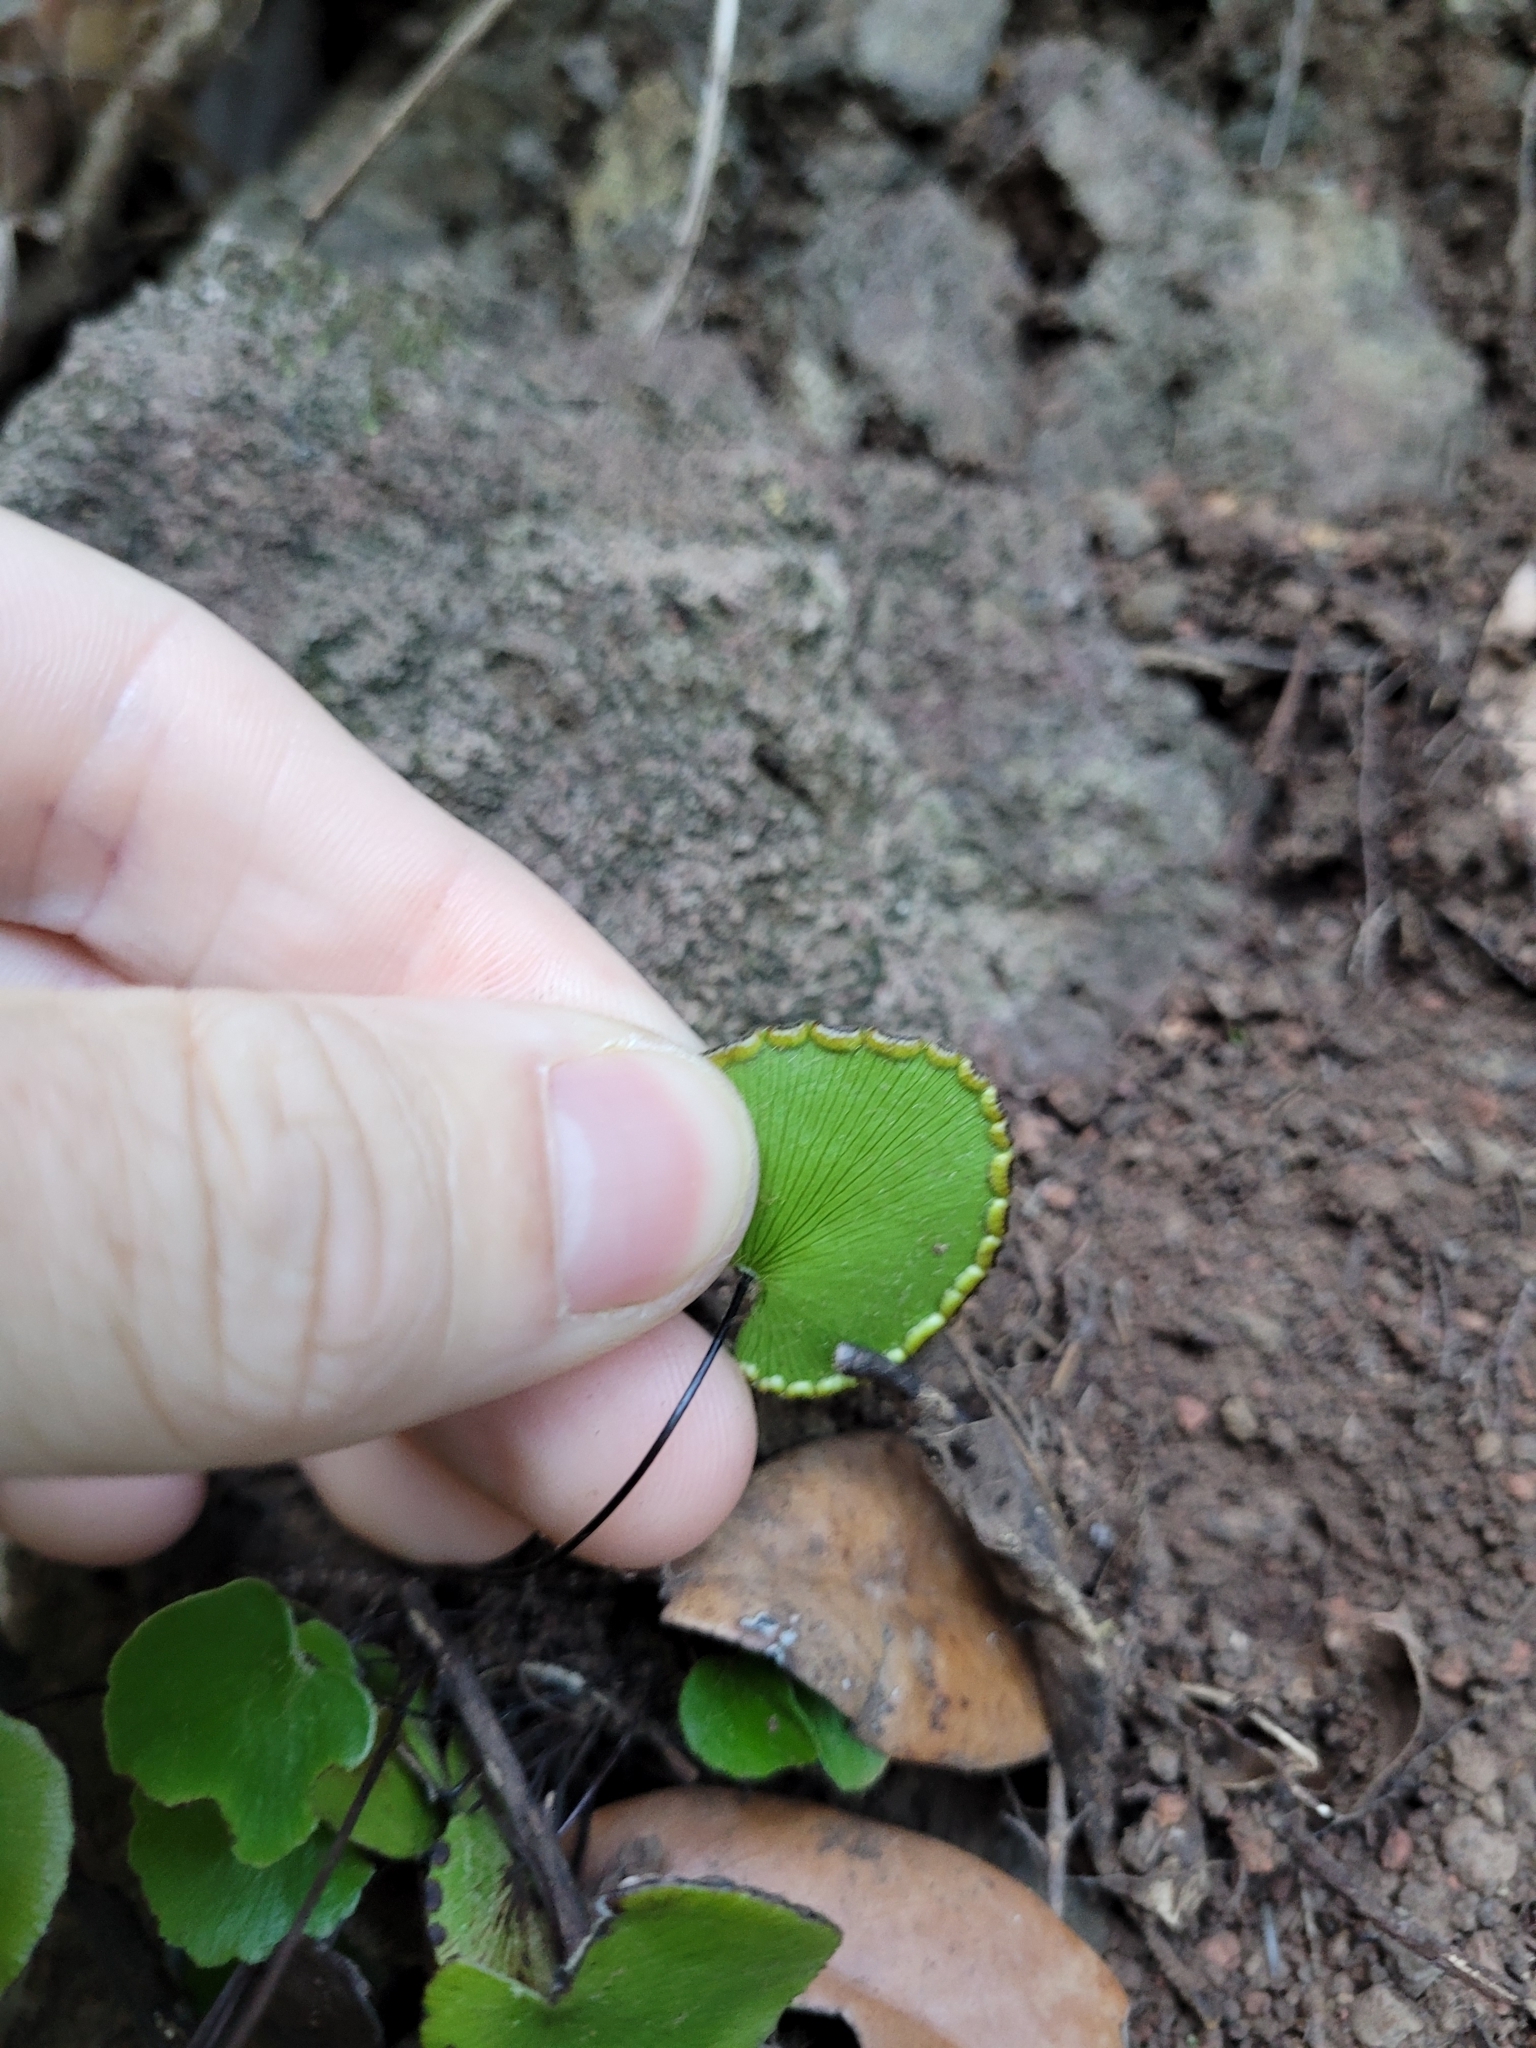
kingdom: Plantae
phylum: Tracheophyta
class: Polypodiopsida
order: Polypodiales
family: Pteridaceae
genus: Adiantum
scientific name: Adiantum reniforme
